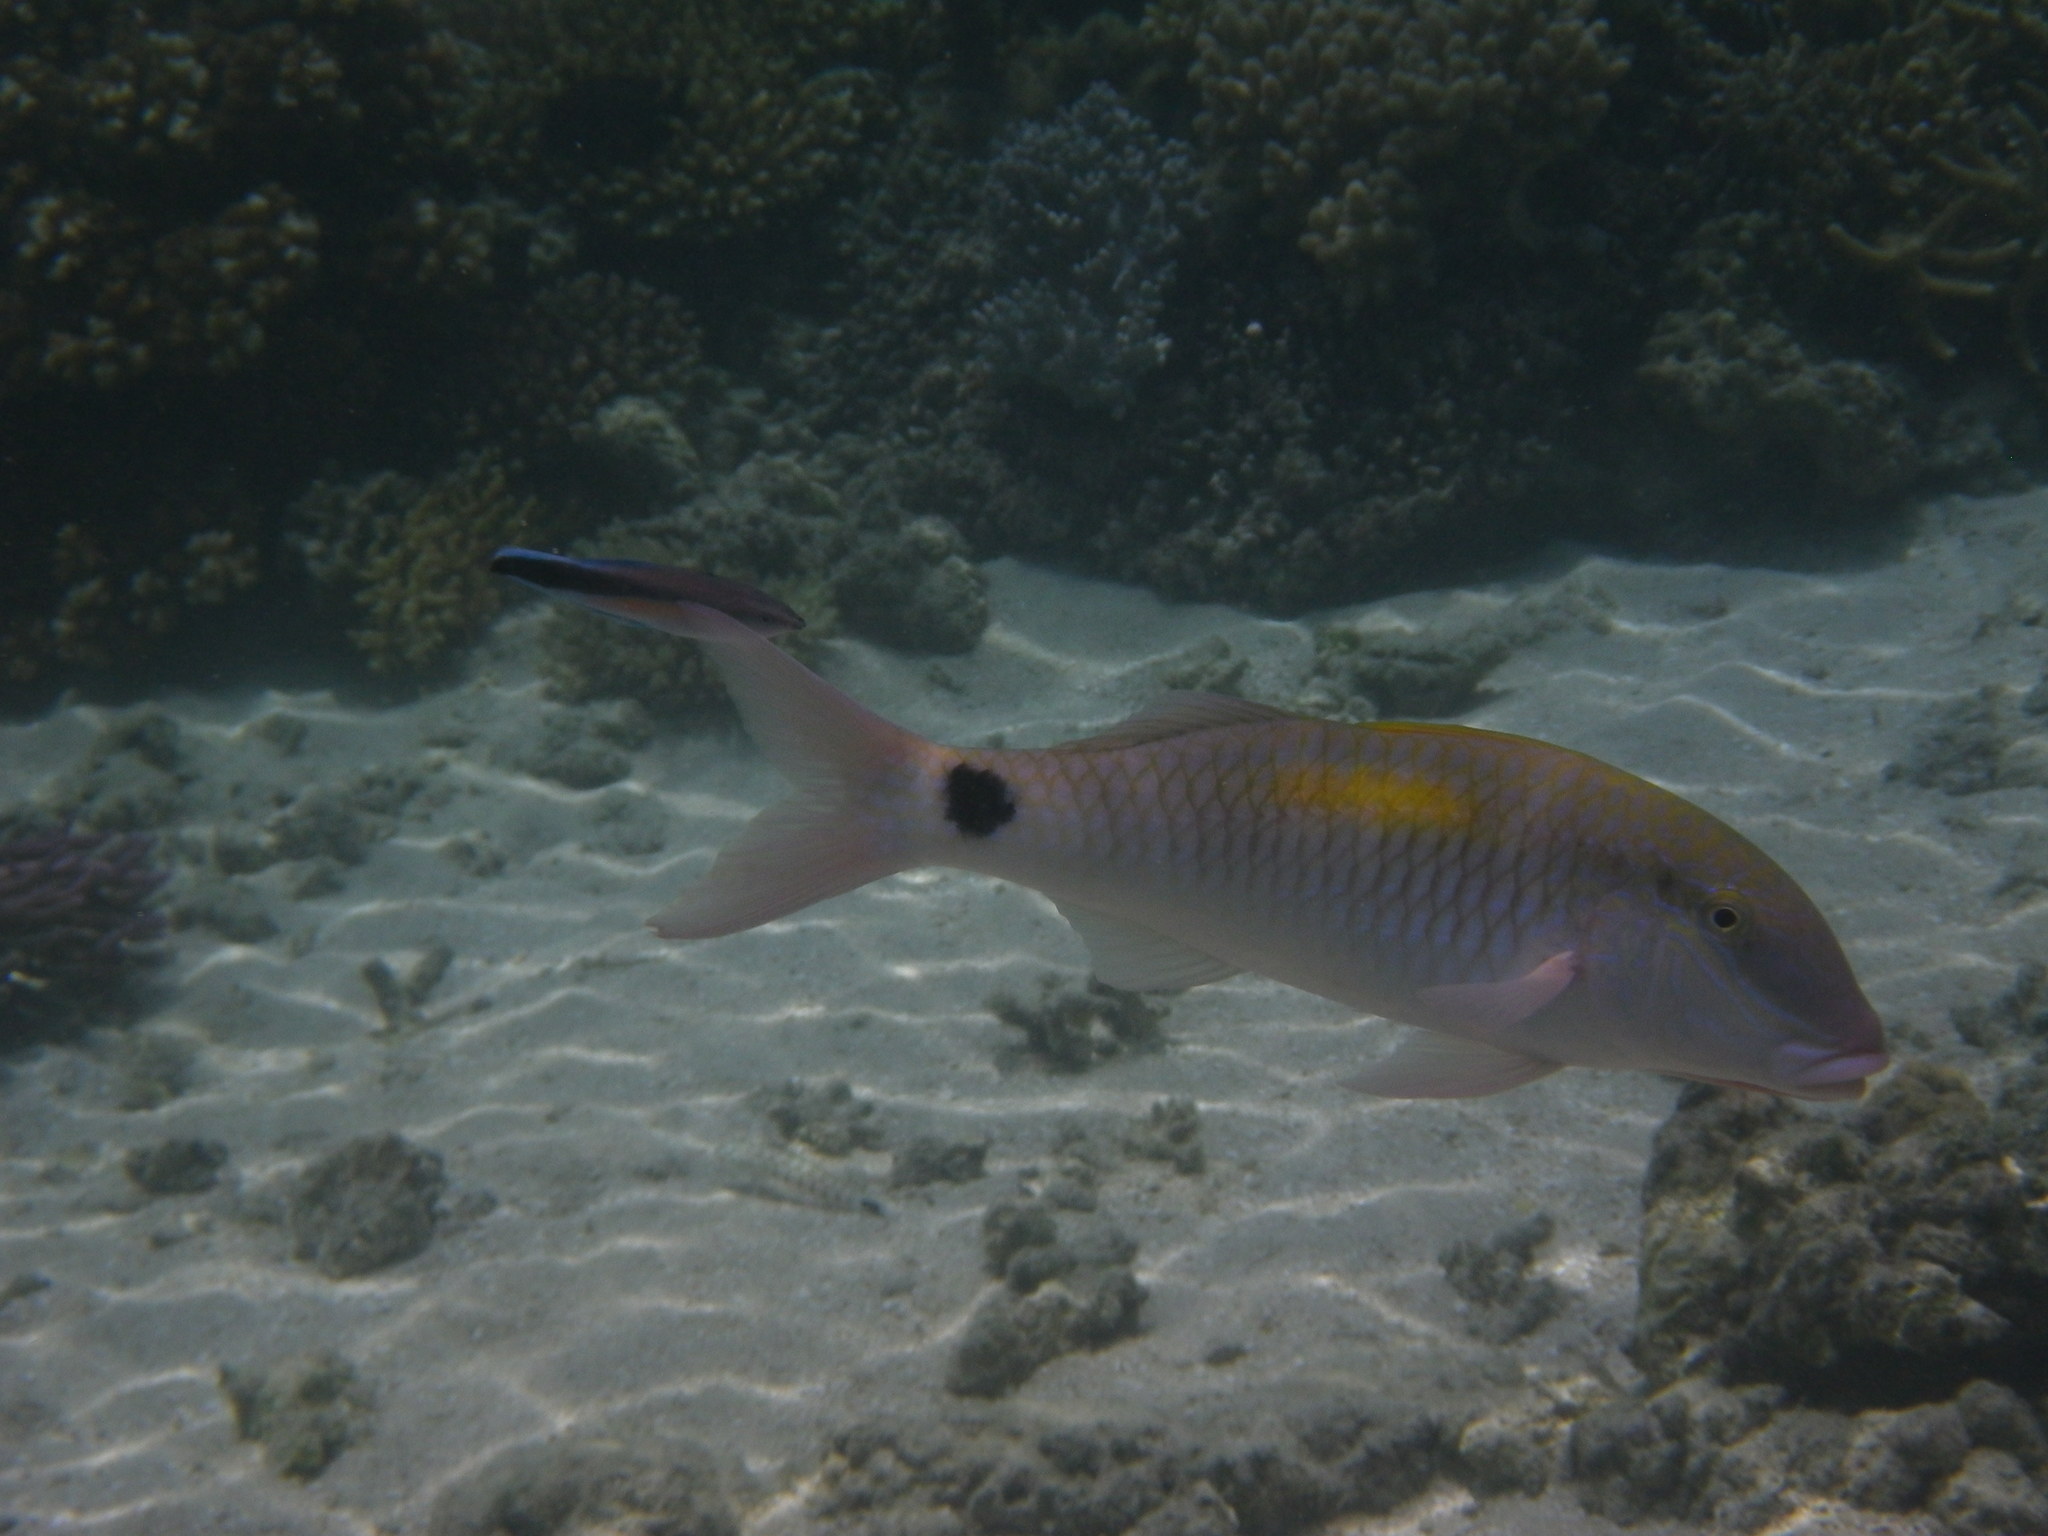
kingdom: Animalia
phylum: Chordata
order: Perciformes
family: Mullidae
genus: Parupeneus
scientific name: Parupeneus indicus
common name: Indian goatfish
